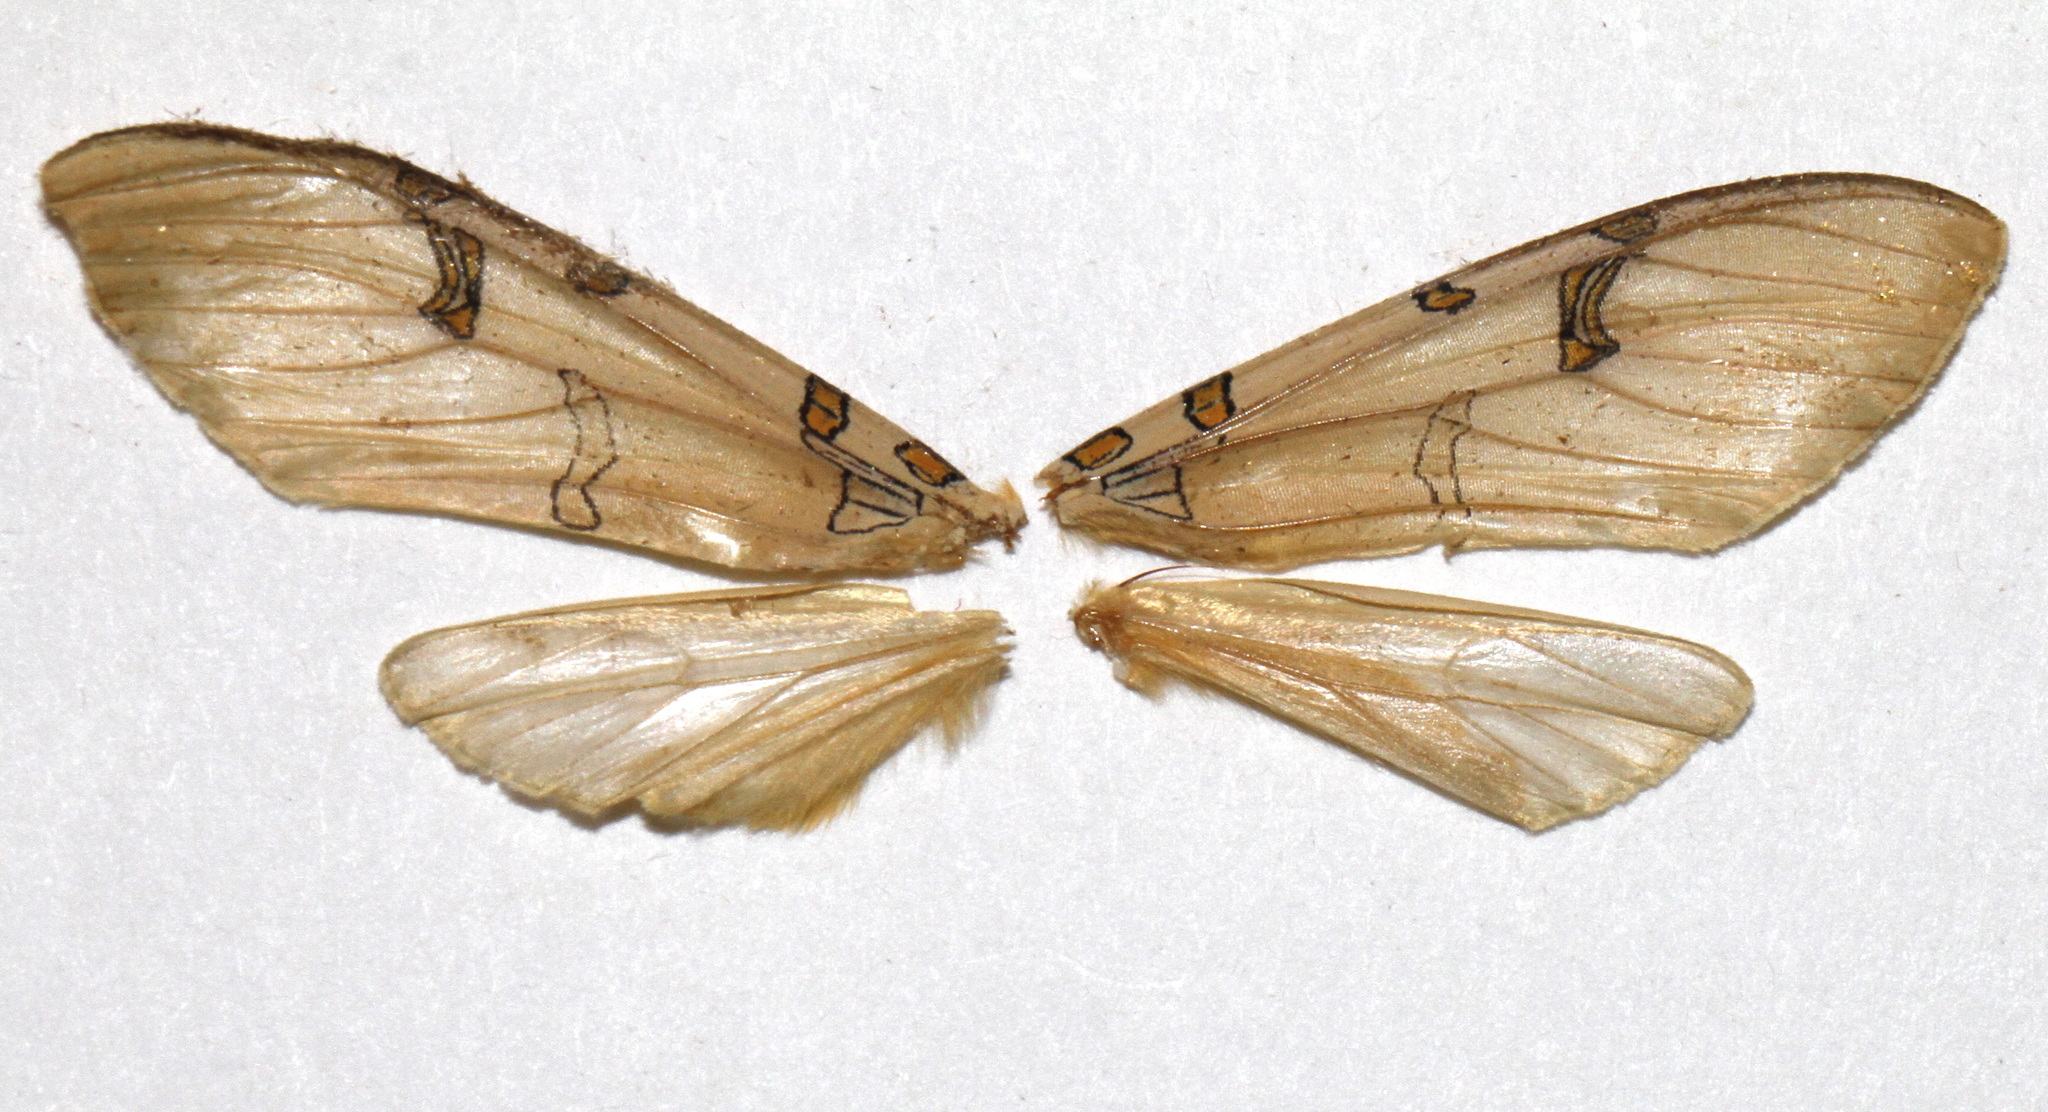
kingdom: Animalia
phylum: Arthropoda
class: Insecta
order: Lepidoptera
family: Erebidae
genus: Halysidota
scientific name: Halysidota davisii
